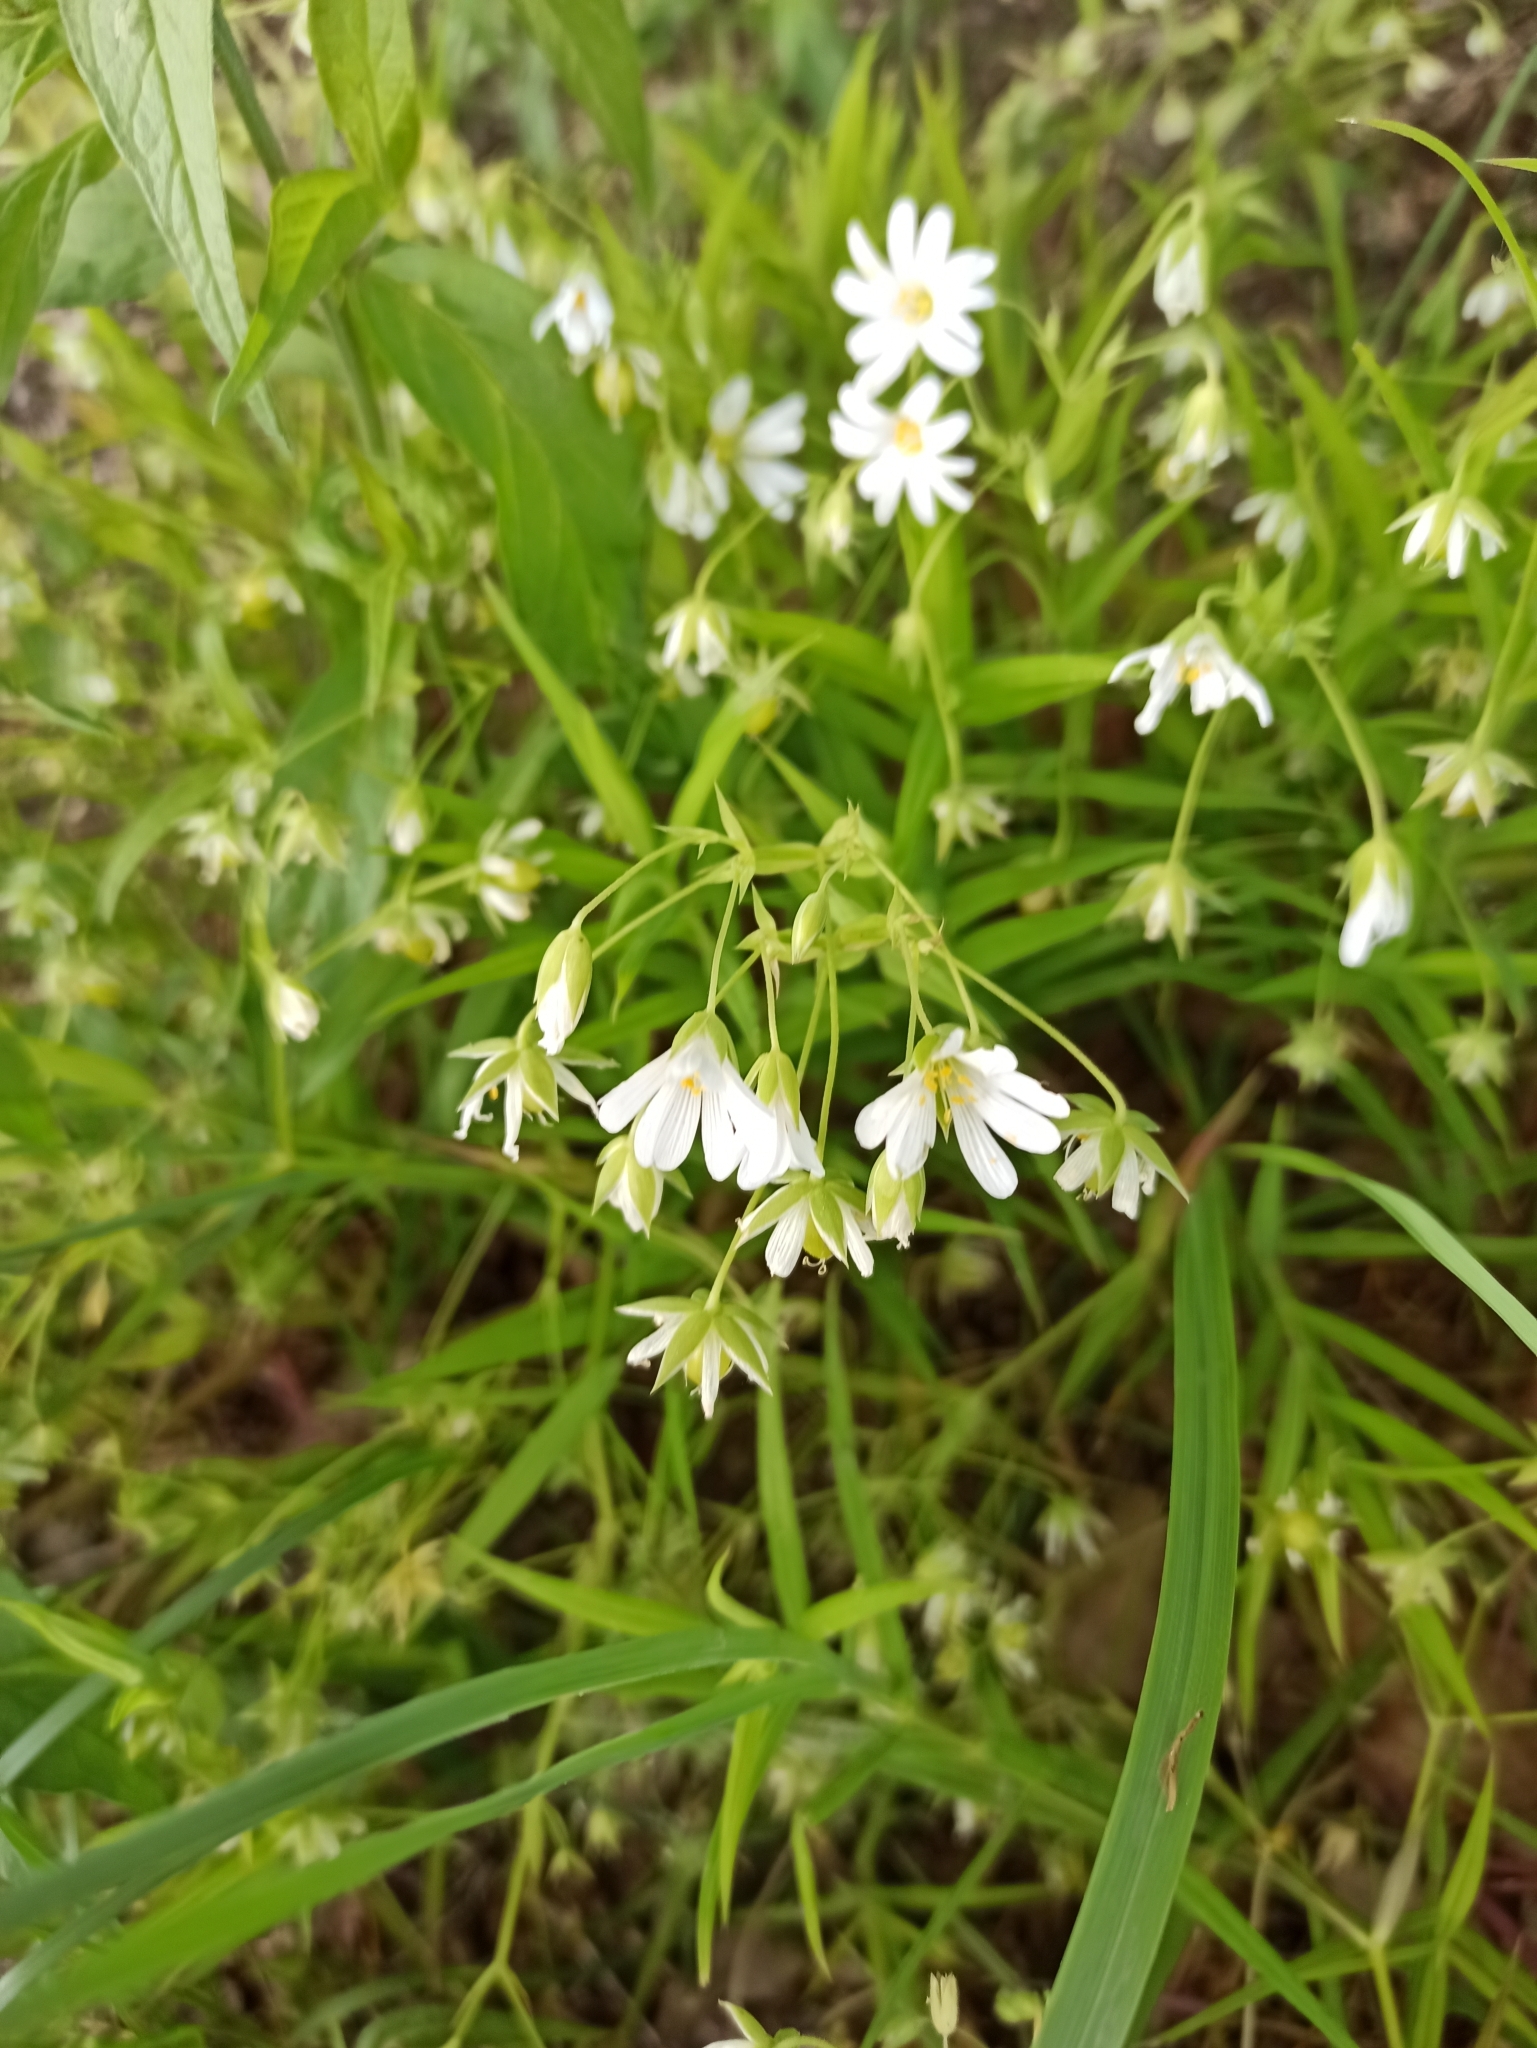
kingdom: Plantae
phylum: Tracheophyta
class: Magnoliopsida
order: Caryophyllales
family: Caryophyllaceae
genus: Rabelera
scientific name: Rabelera holostea
